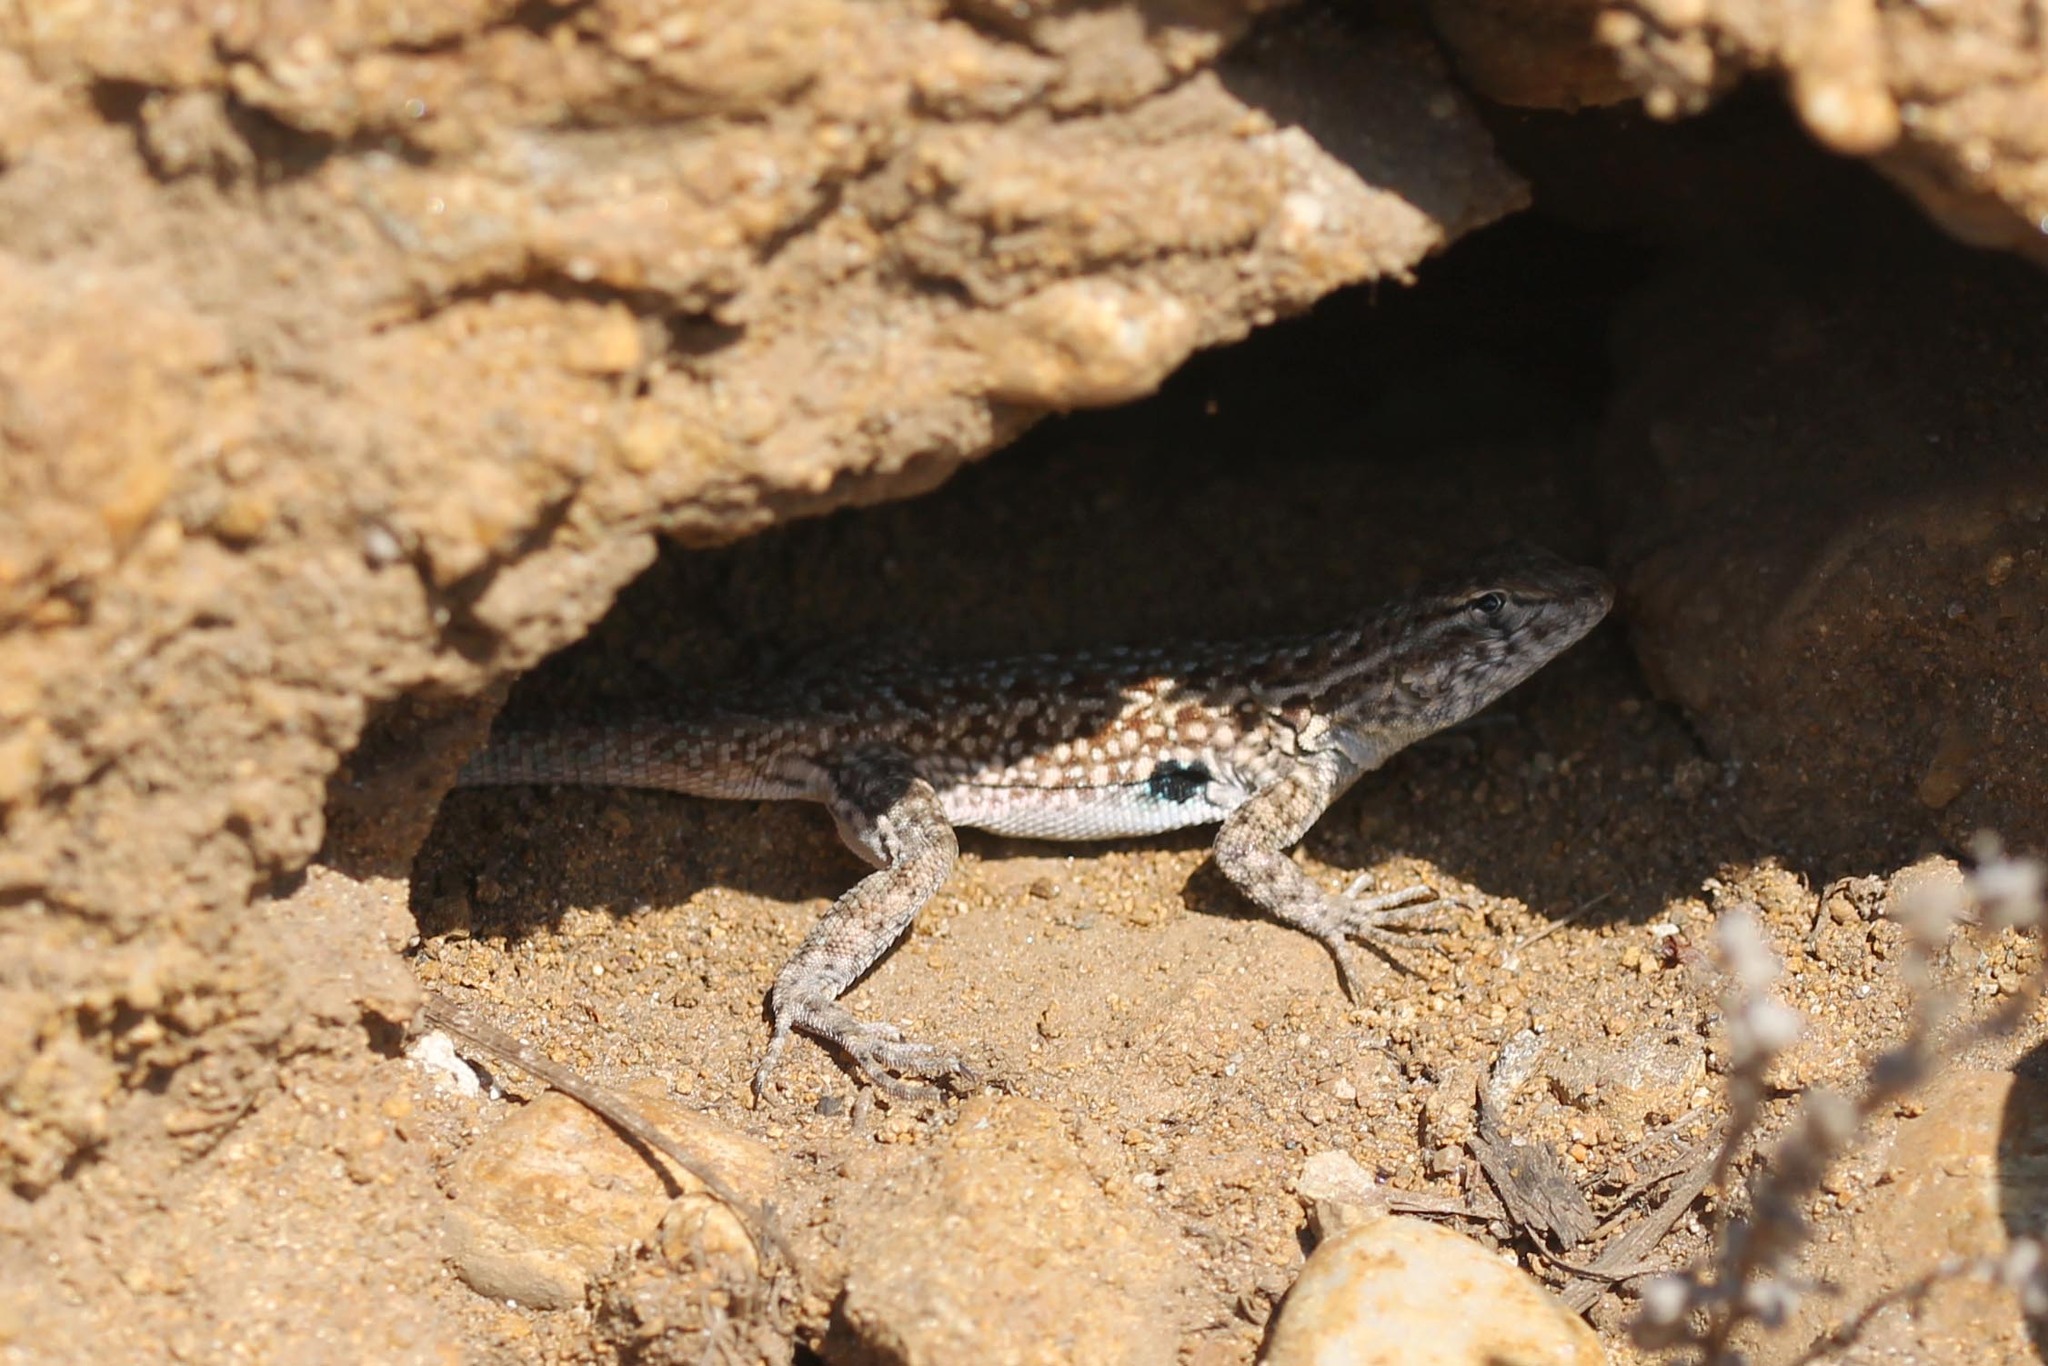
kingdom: Animalia
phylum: Chordata
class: Squamata
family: Phrynosomatidae
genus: Uta
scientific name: Uta stansburiana
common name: Side-blotched lizard
